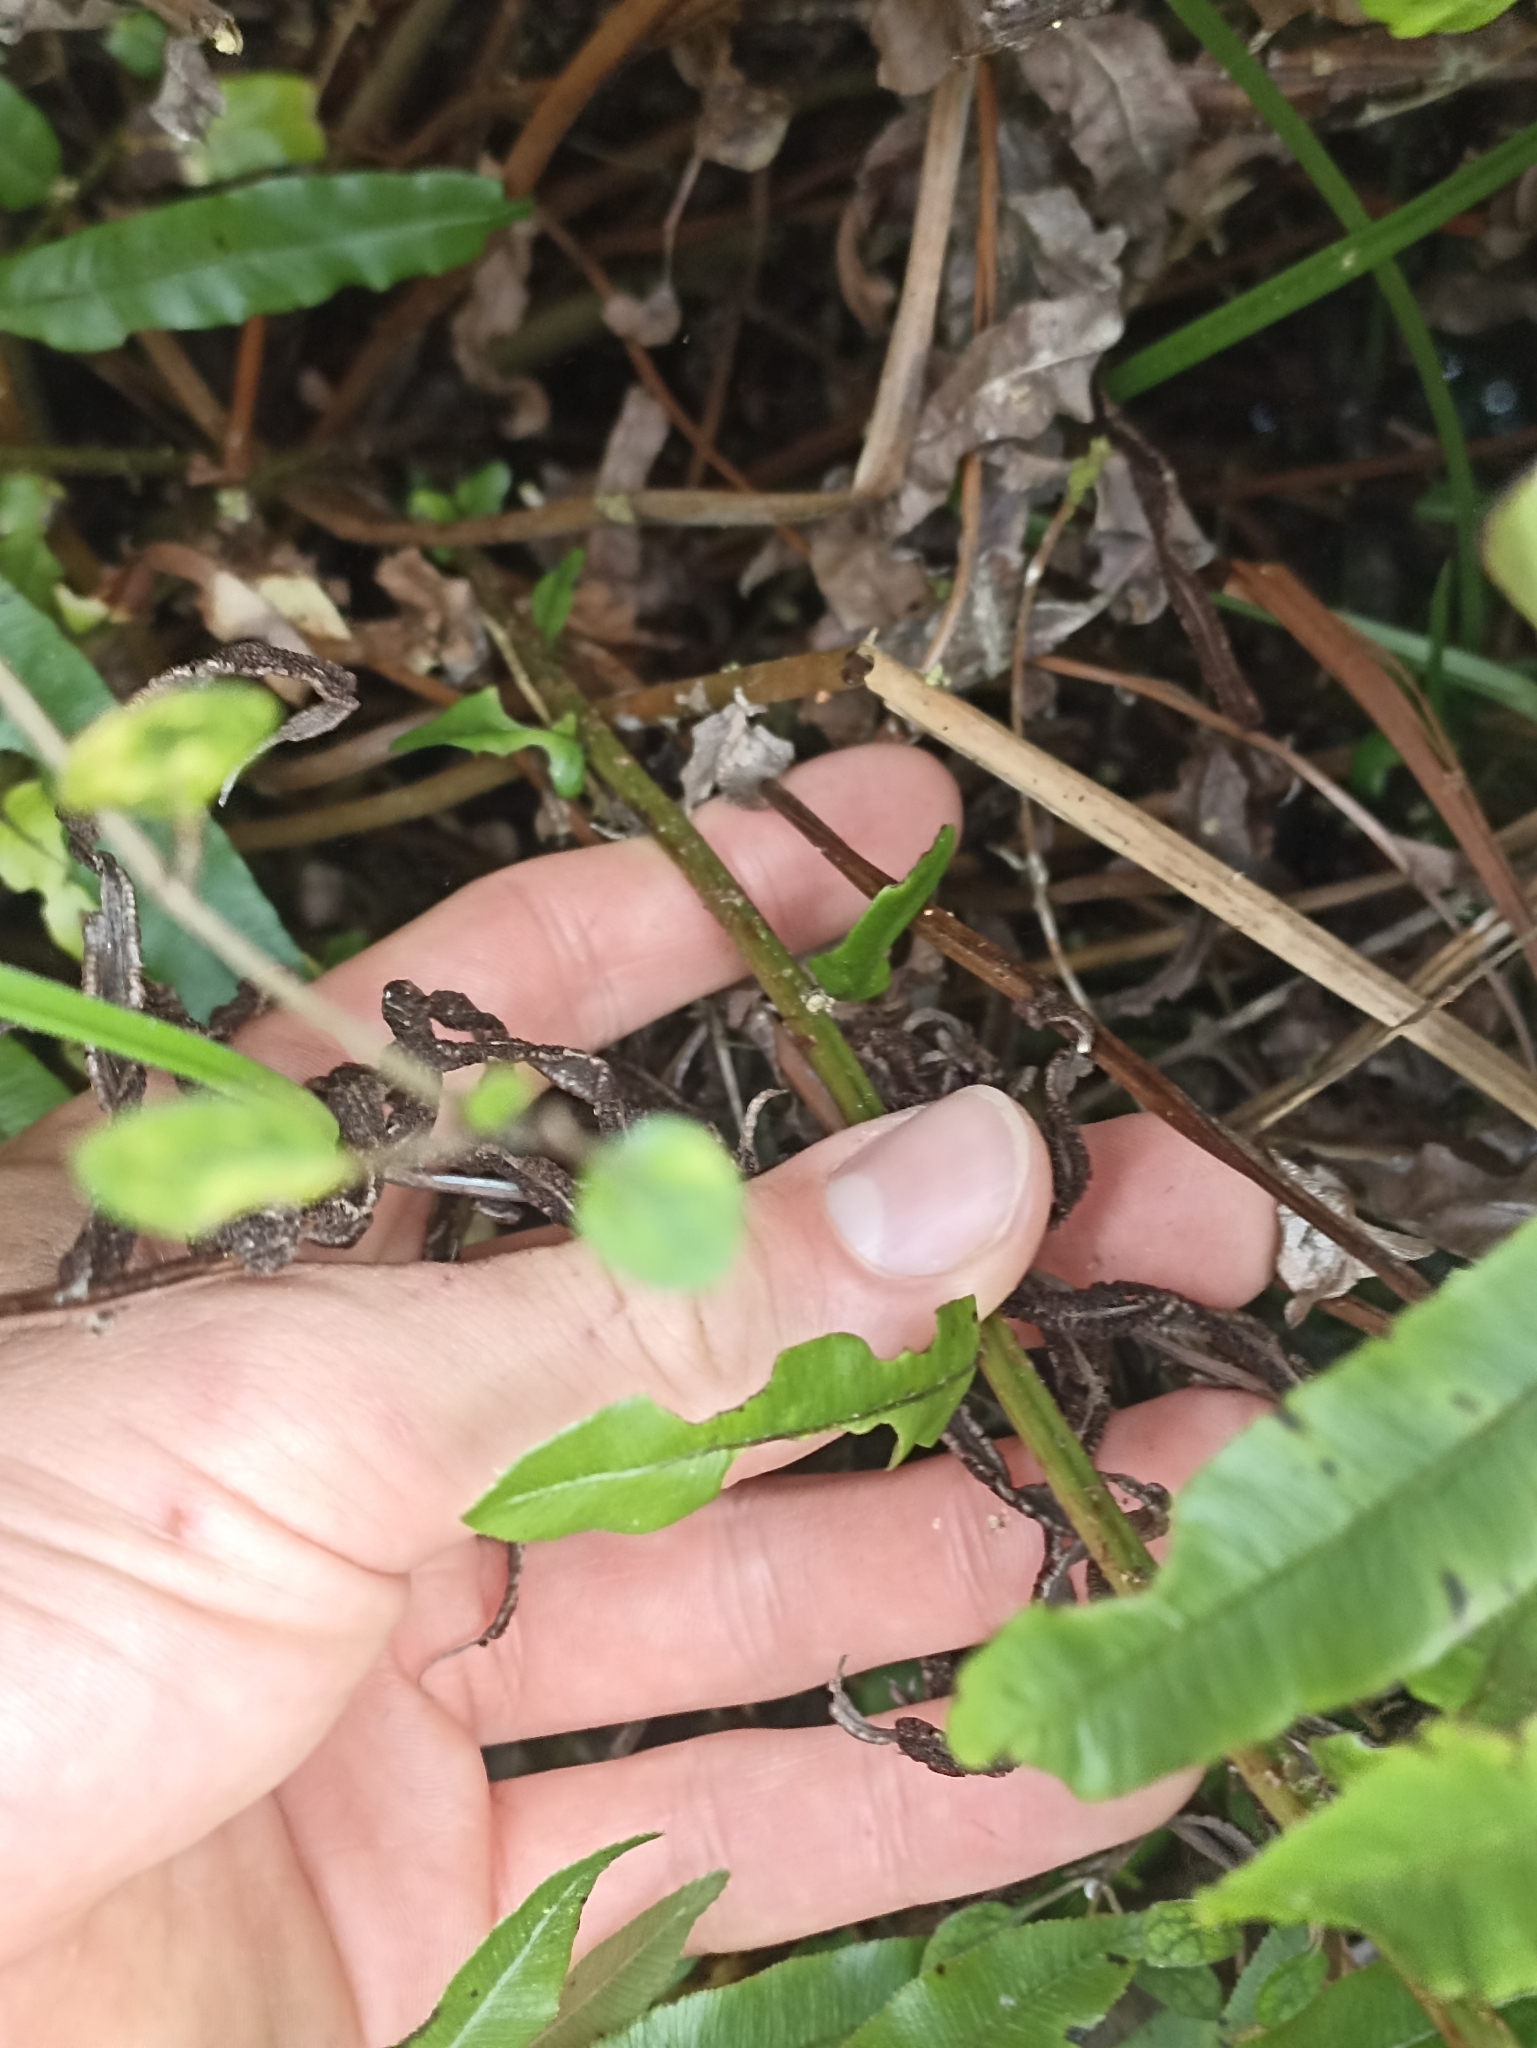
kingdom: Plantae
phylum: Tracheophyta
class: Polypodiopsida
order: Polypodiales
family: Blechnaceae
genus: Parablechnum
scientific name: Parablechnum minus
